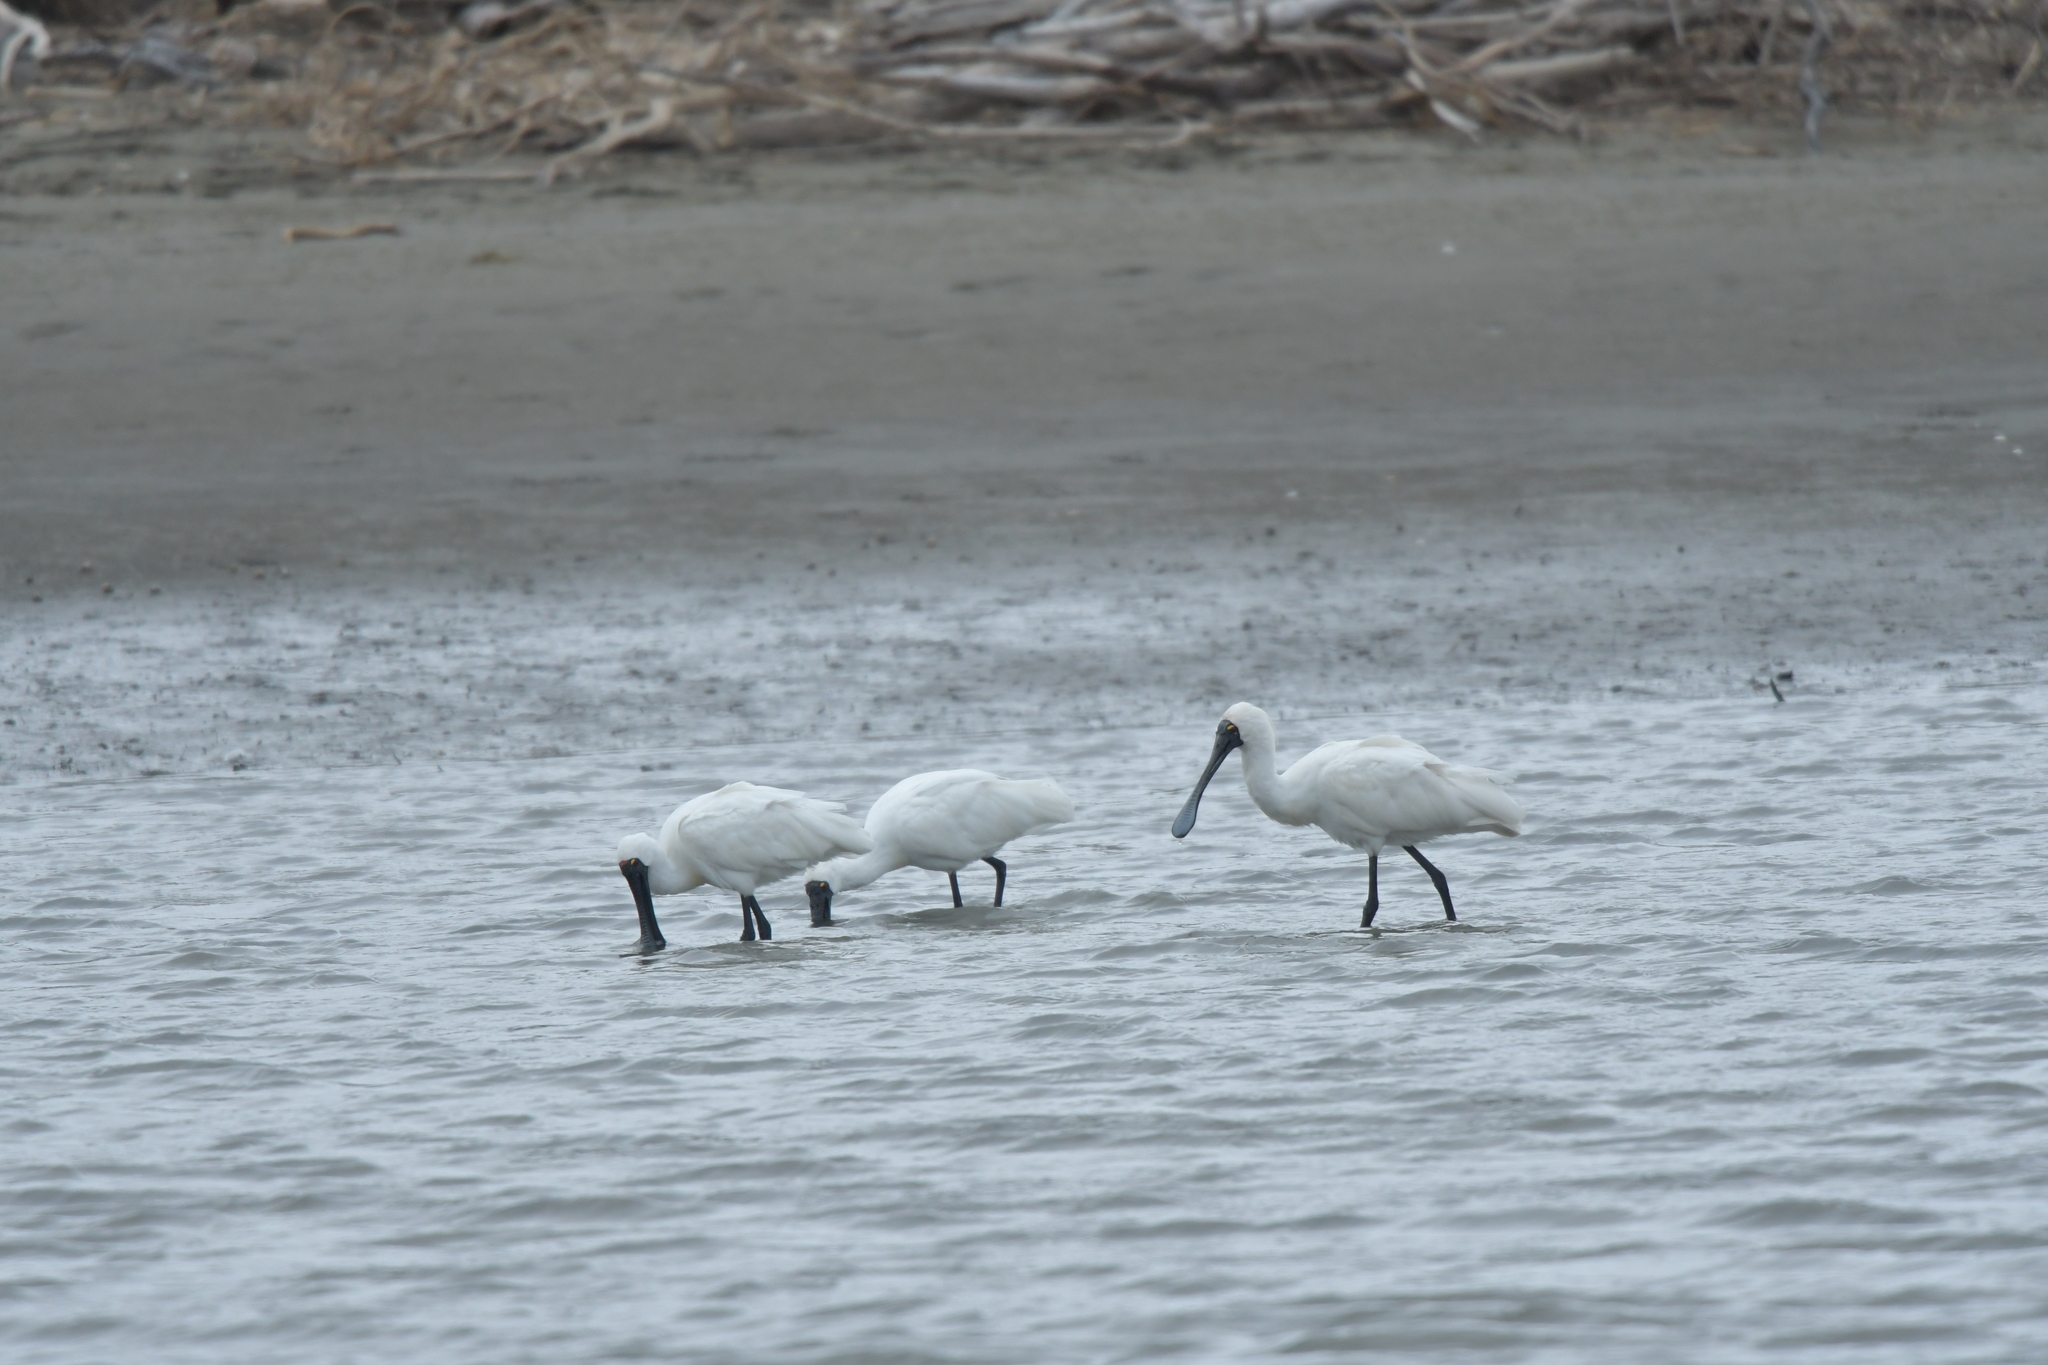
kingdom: Animalia
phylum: Chordata
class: Aves
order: Pelecaniformes
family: Threskiornithidae
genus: Platalea
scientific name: Platalea regia
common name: Royal spoonbill
